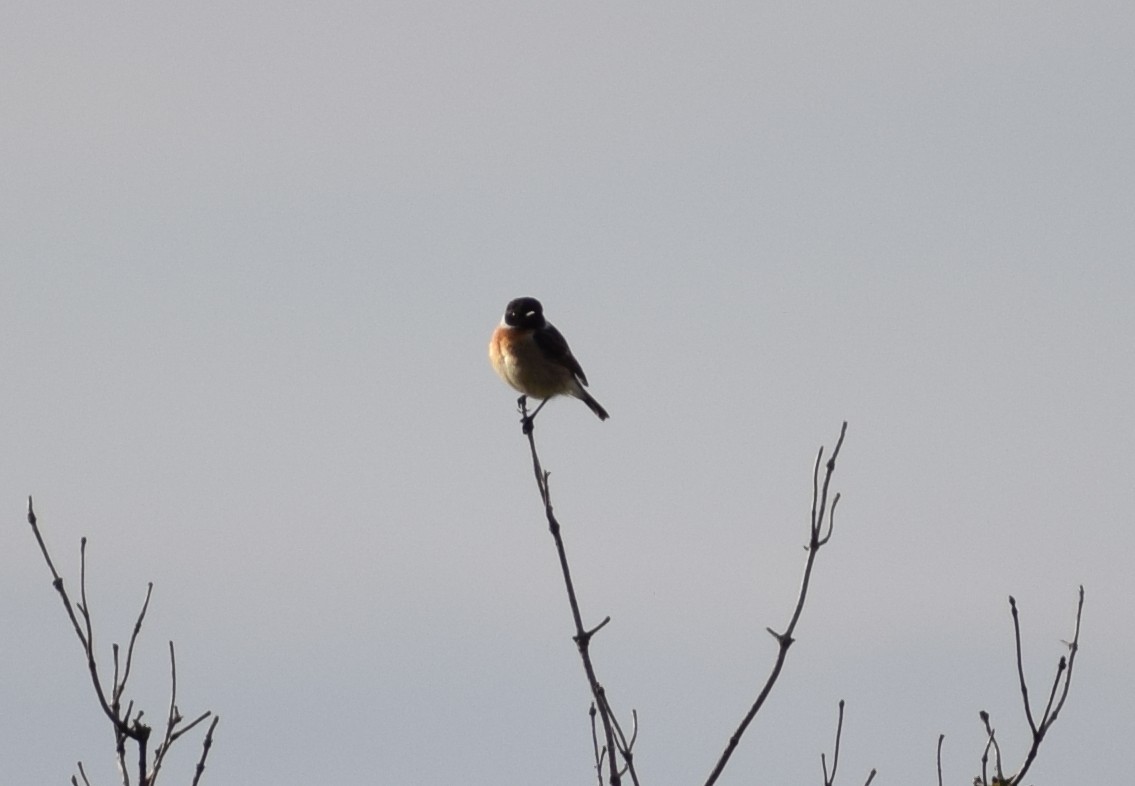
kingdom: Animalia
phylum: Chordata
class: Aves
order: Passeriformes
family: Muscicapidae
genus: Saxicola
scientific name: Saxicola rubicola
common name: European stonechat
